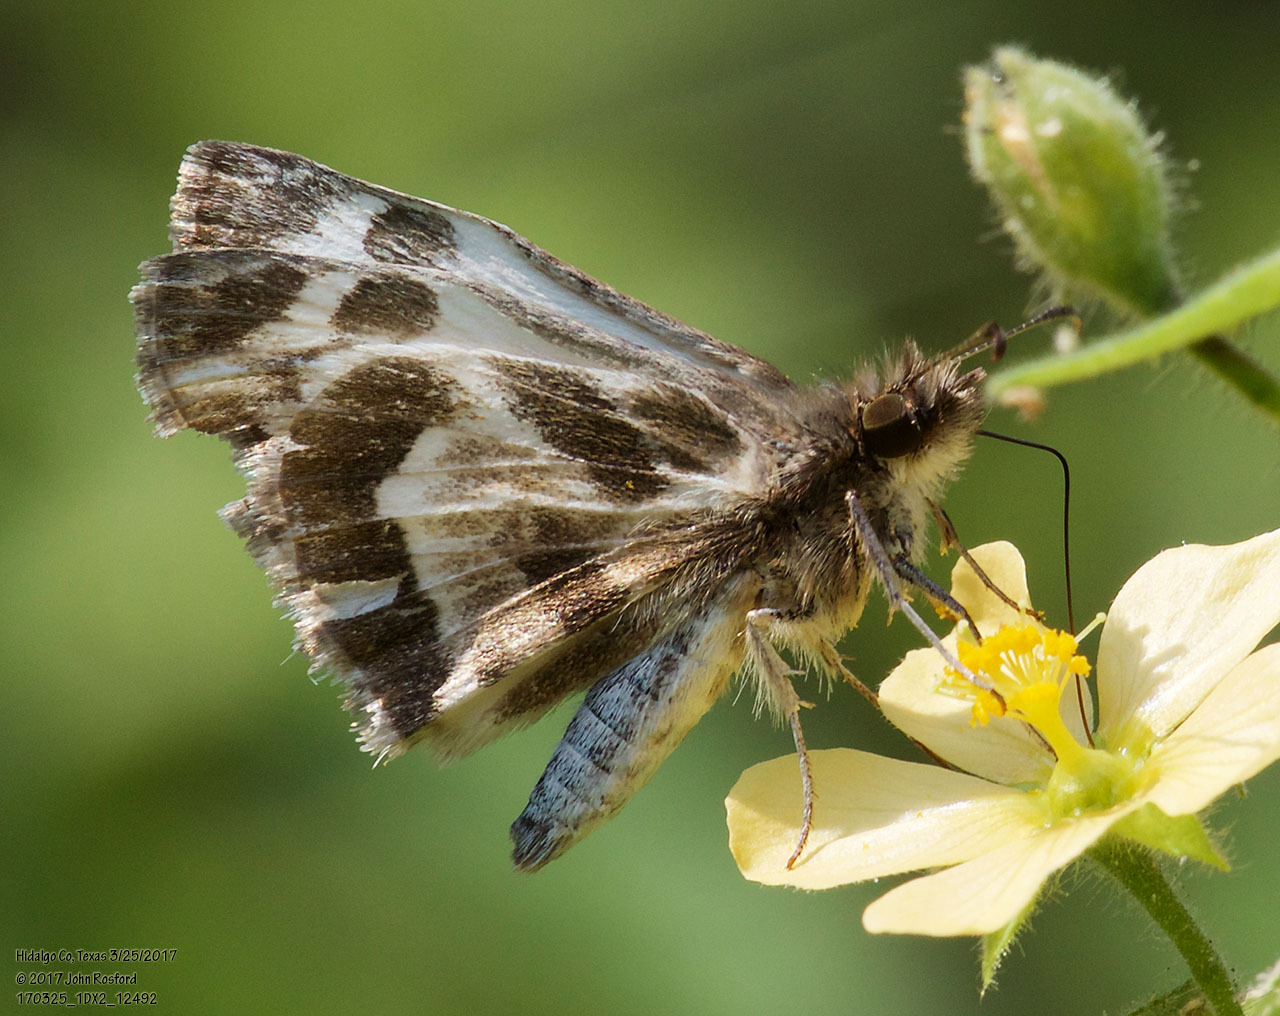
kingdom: Animalia
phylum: Arthropoda
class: Insecta
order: Lepidoptera
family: Hesperiidae
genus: Heliopetes
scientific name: Heliopetes macaira
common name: Turk's-cap white-skipper
